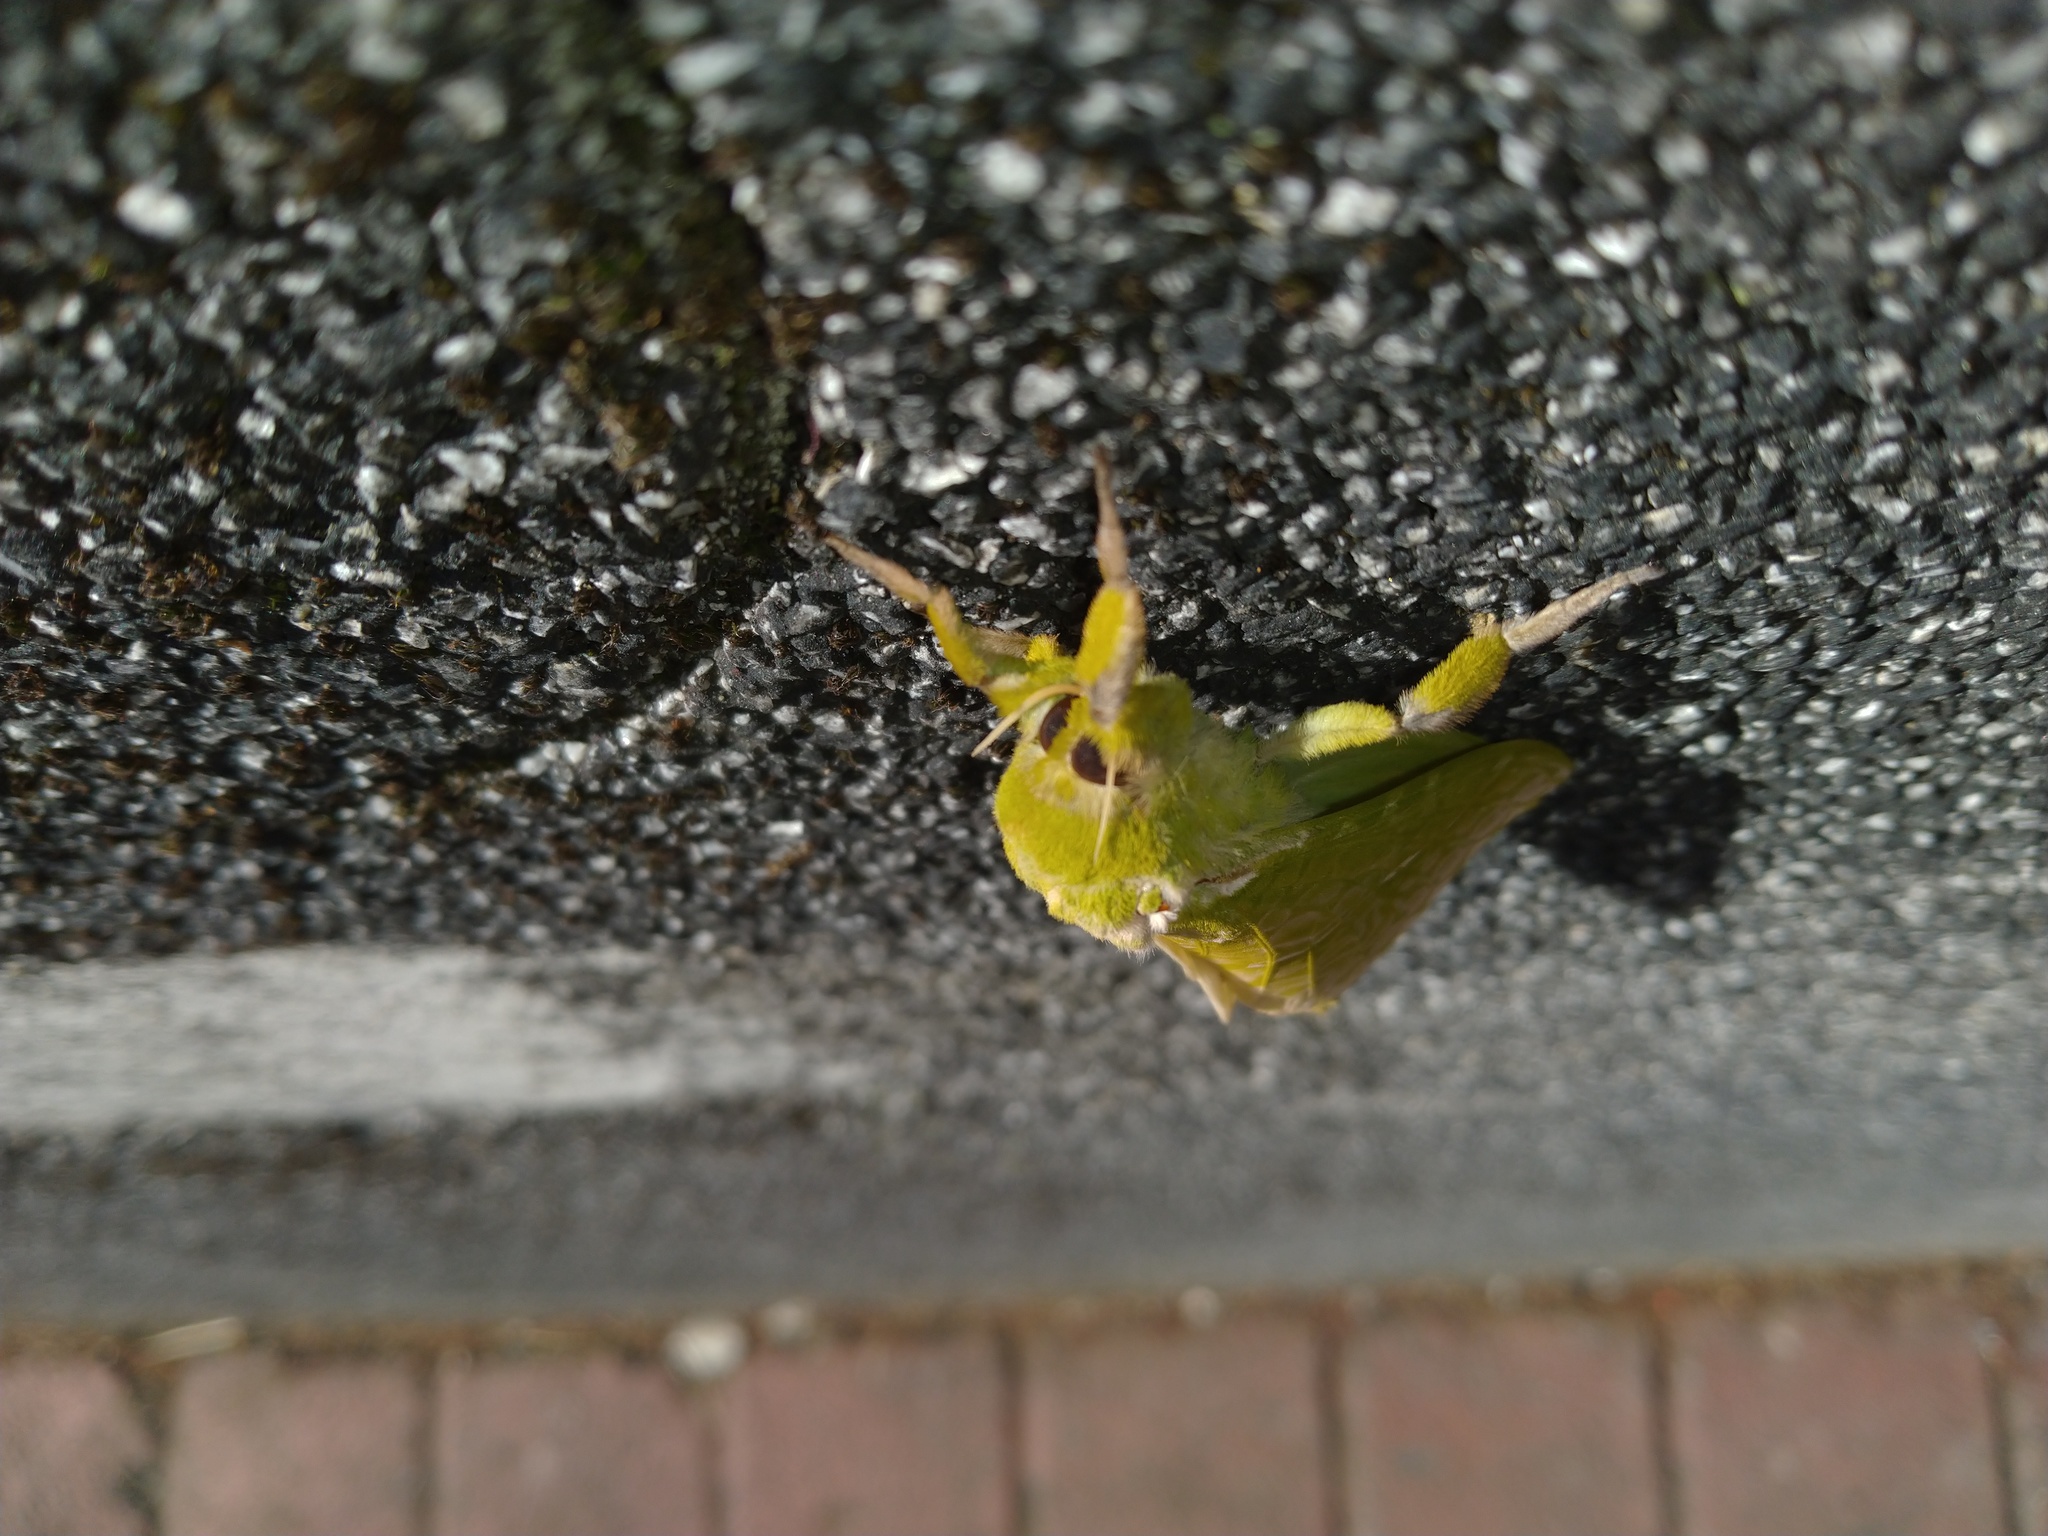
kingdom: Animalia
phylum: Arthropoda
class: Insecta
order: Lepidoptera
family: Hepialidae
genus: Aenetus
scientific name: Aenetus virescens
